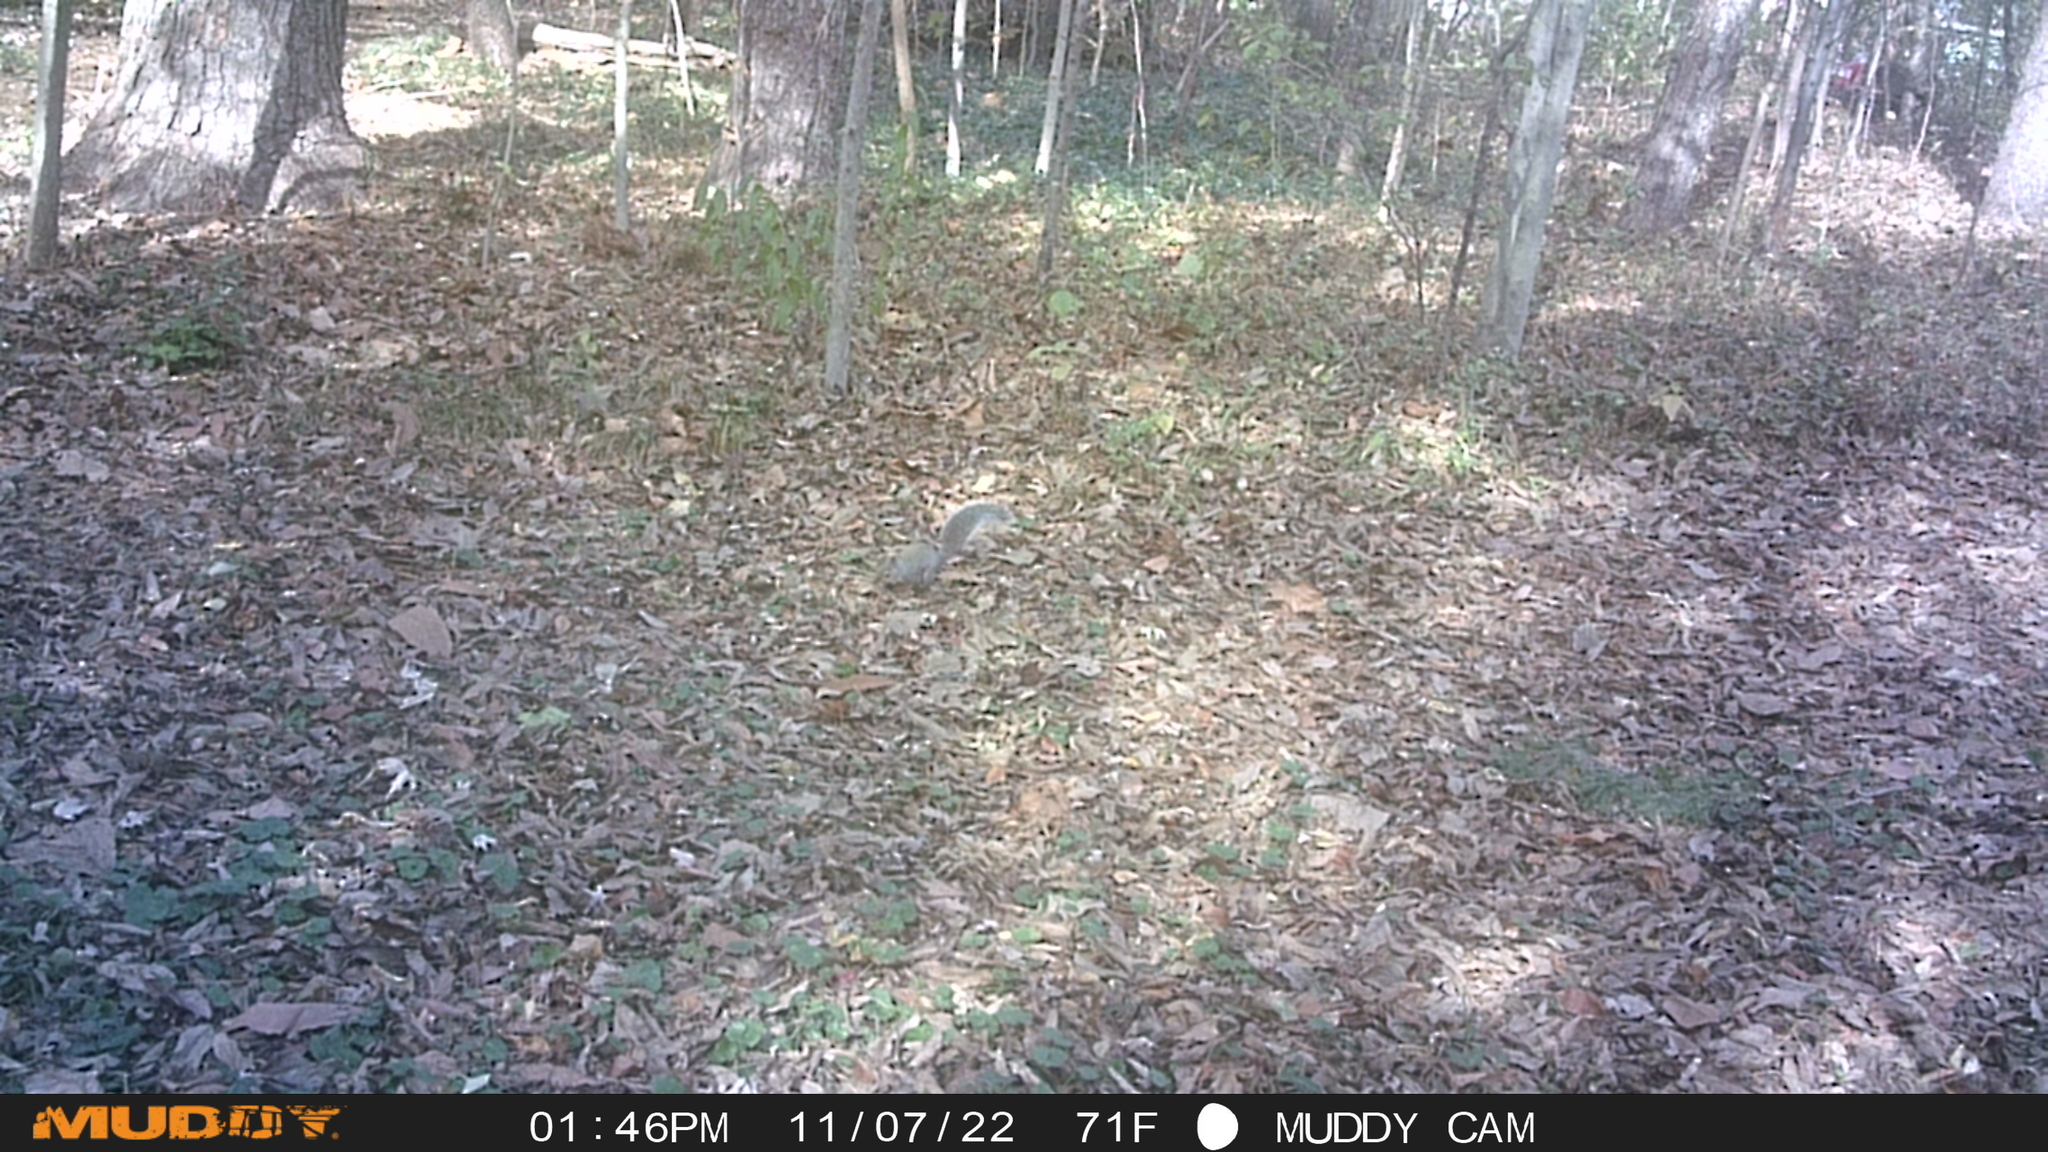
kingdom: Animalia
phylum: Chordata
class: Mammalia
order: Rodentia
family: Sciuridae
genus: Sciurus
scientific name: Sciurus carolinensis
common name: Eastern gray squirrel
